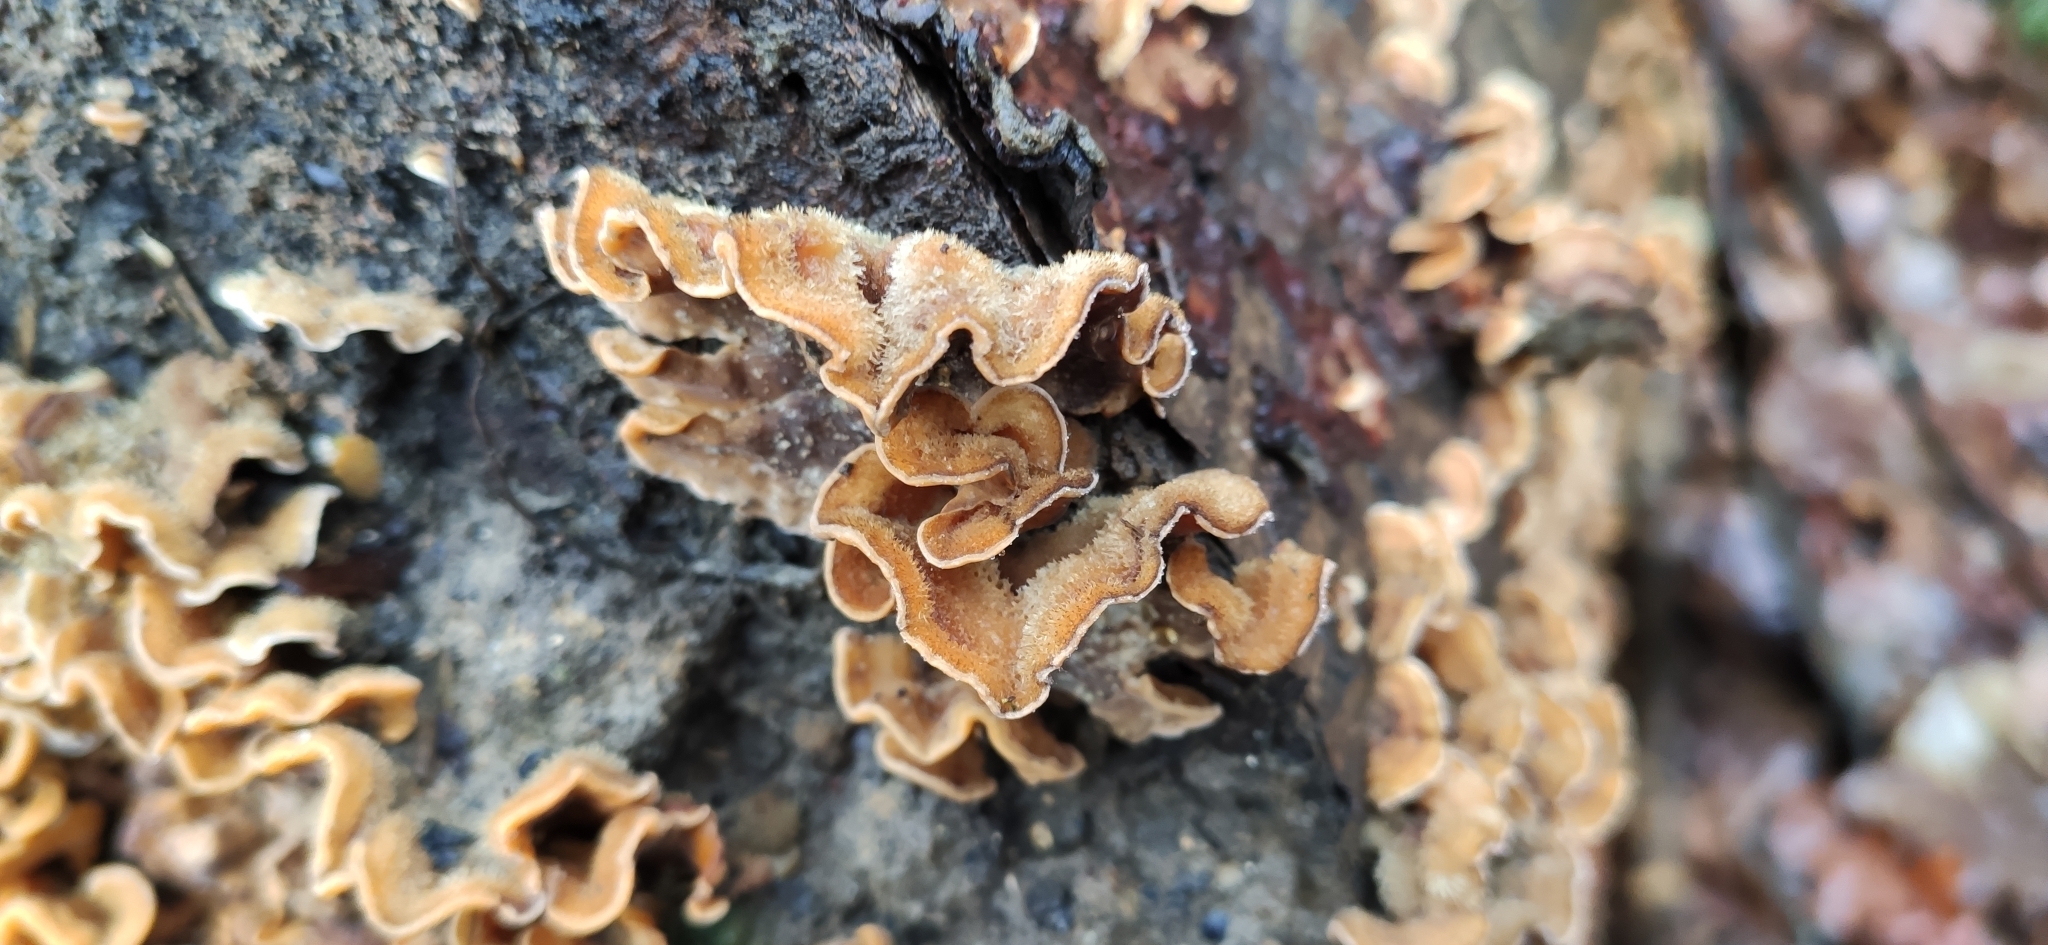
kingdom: Fungi
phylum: Basidiomycota
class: Agaricomycetes
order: Russulales
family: Stereaceae
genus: Stereum
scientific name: Stereum hirsutum
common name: Hairy curtain crust
